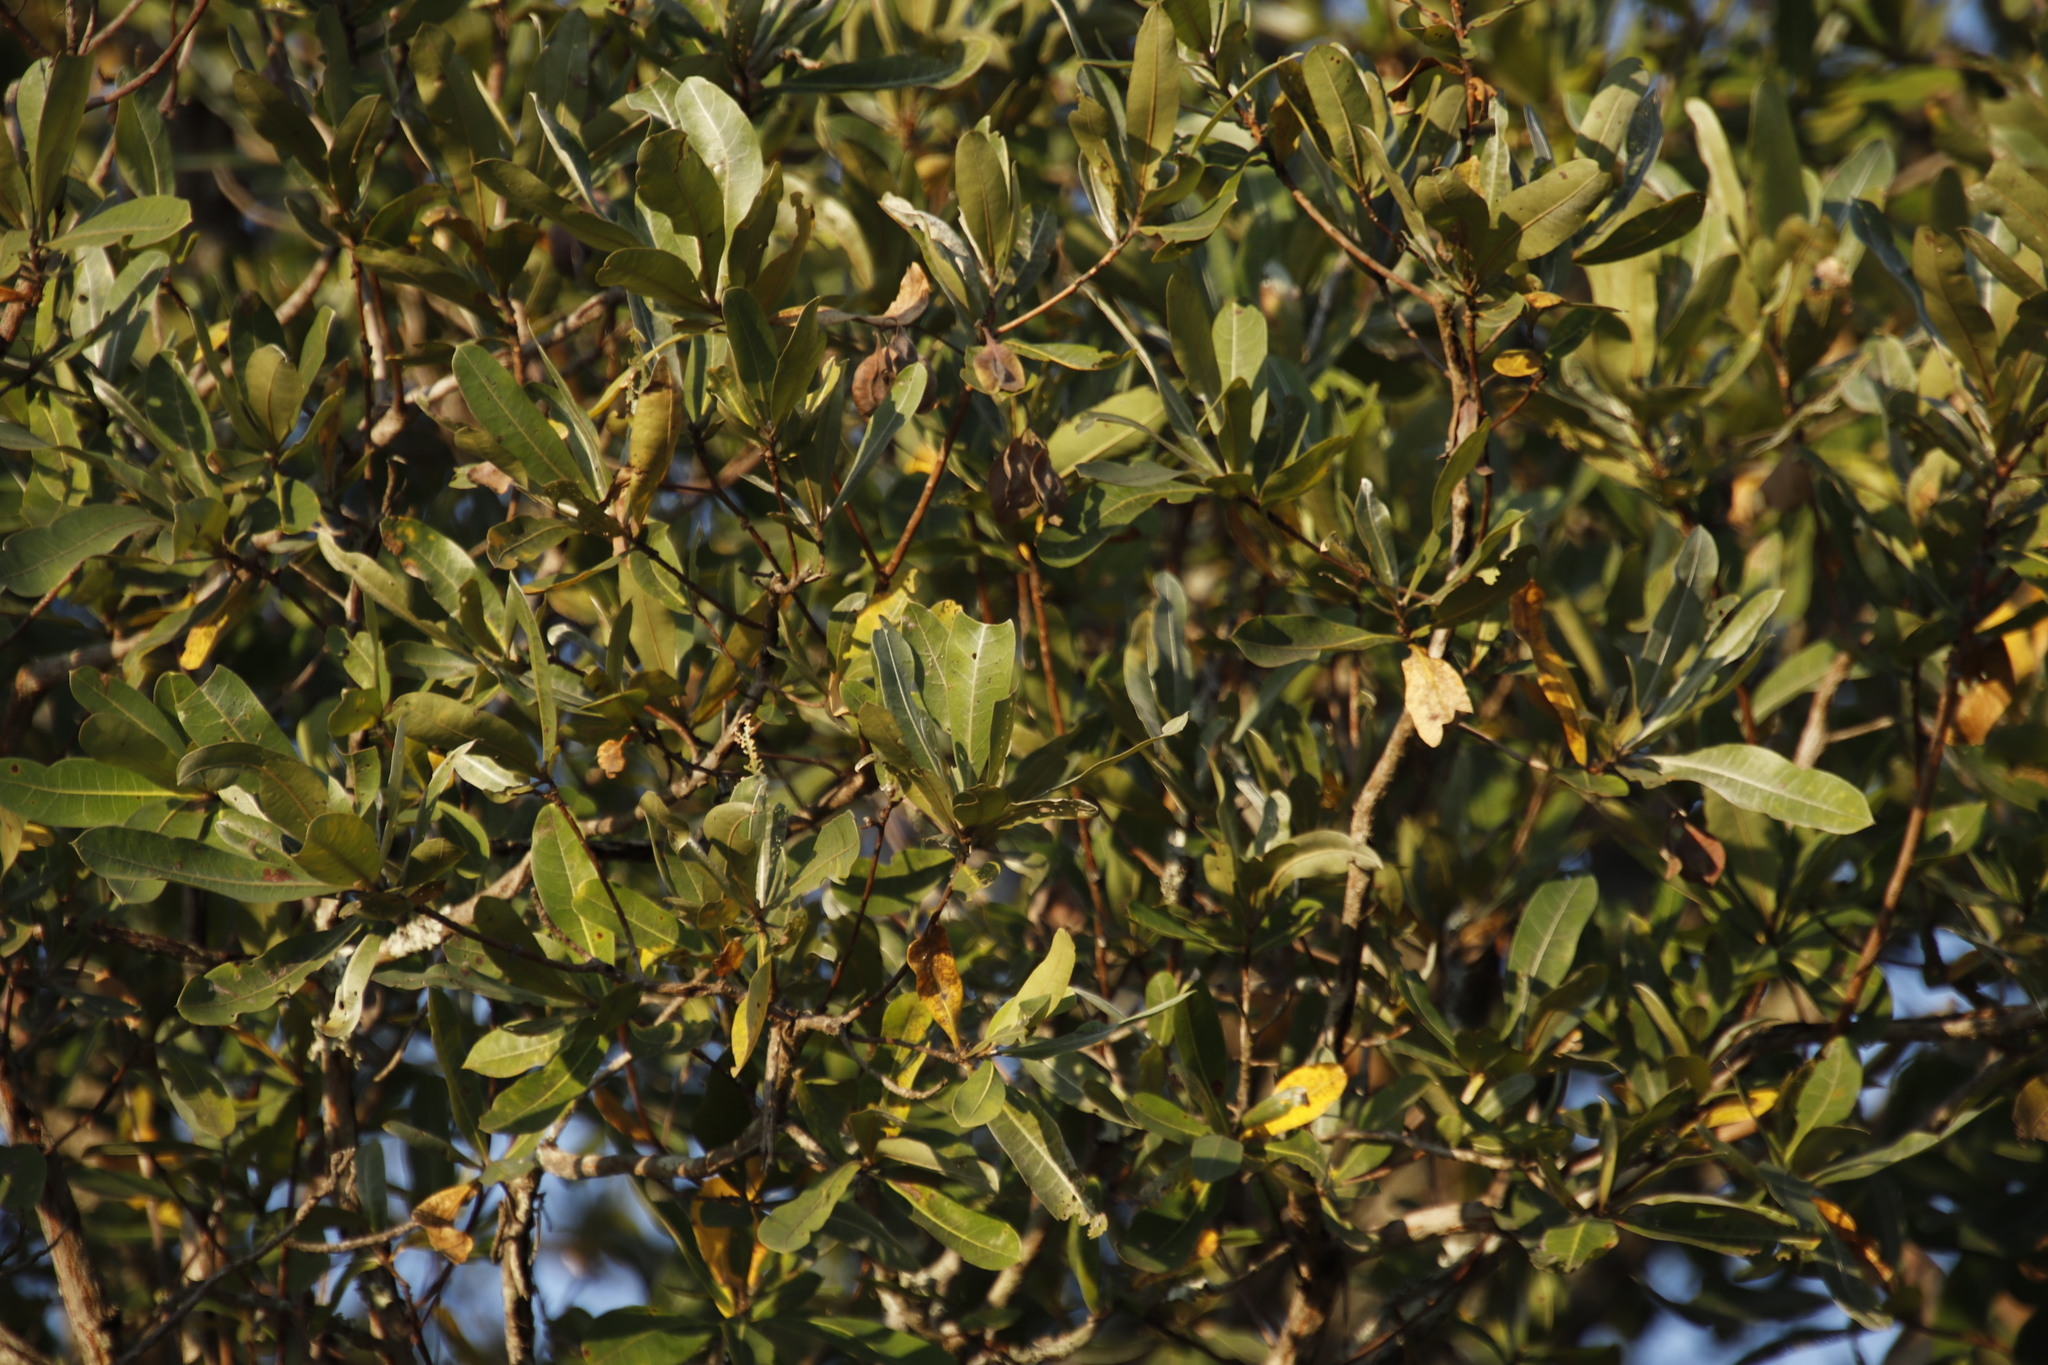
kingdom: Plantae
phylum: Tracheophyta
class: Magnoliopsida
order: Myrtales
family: Combretaceae
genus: Terminalia
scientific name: Terminalia sericea
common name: Clusterleaf
